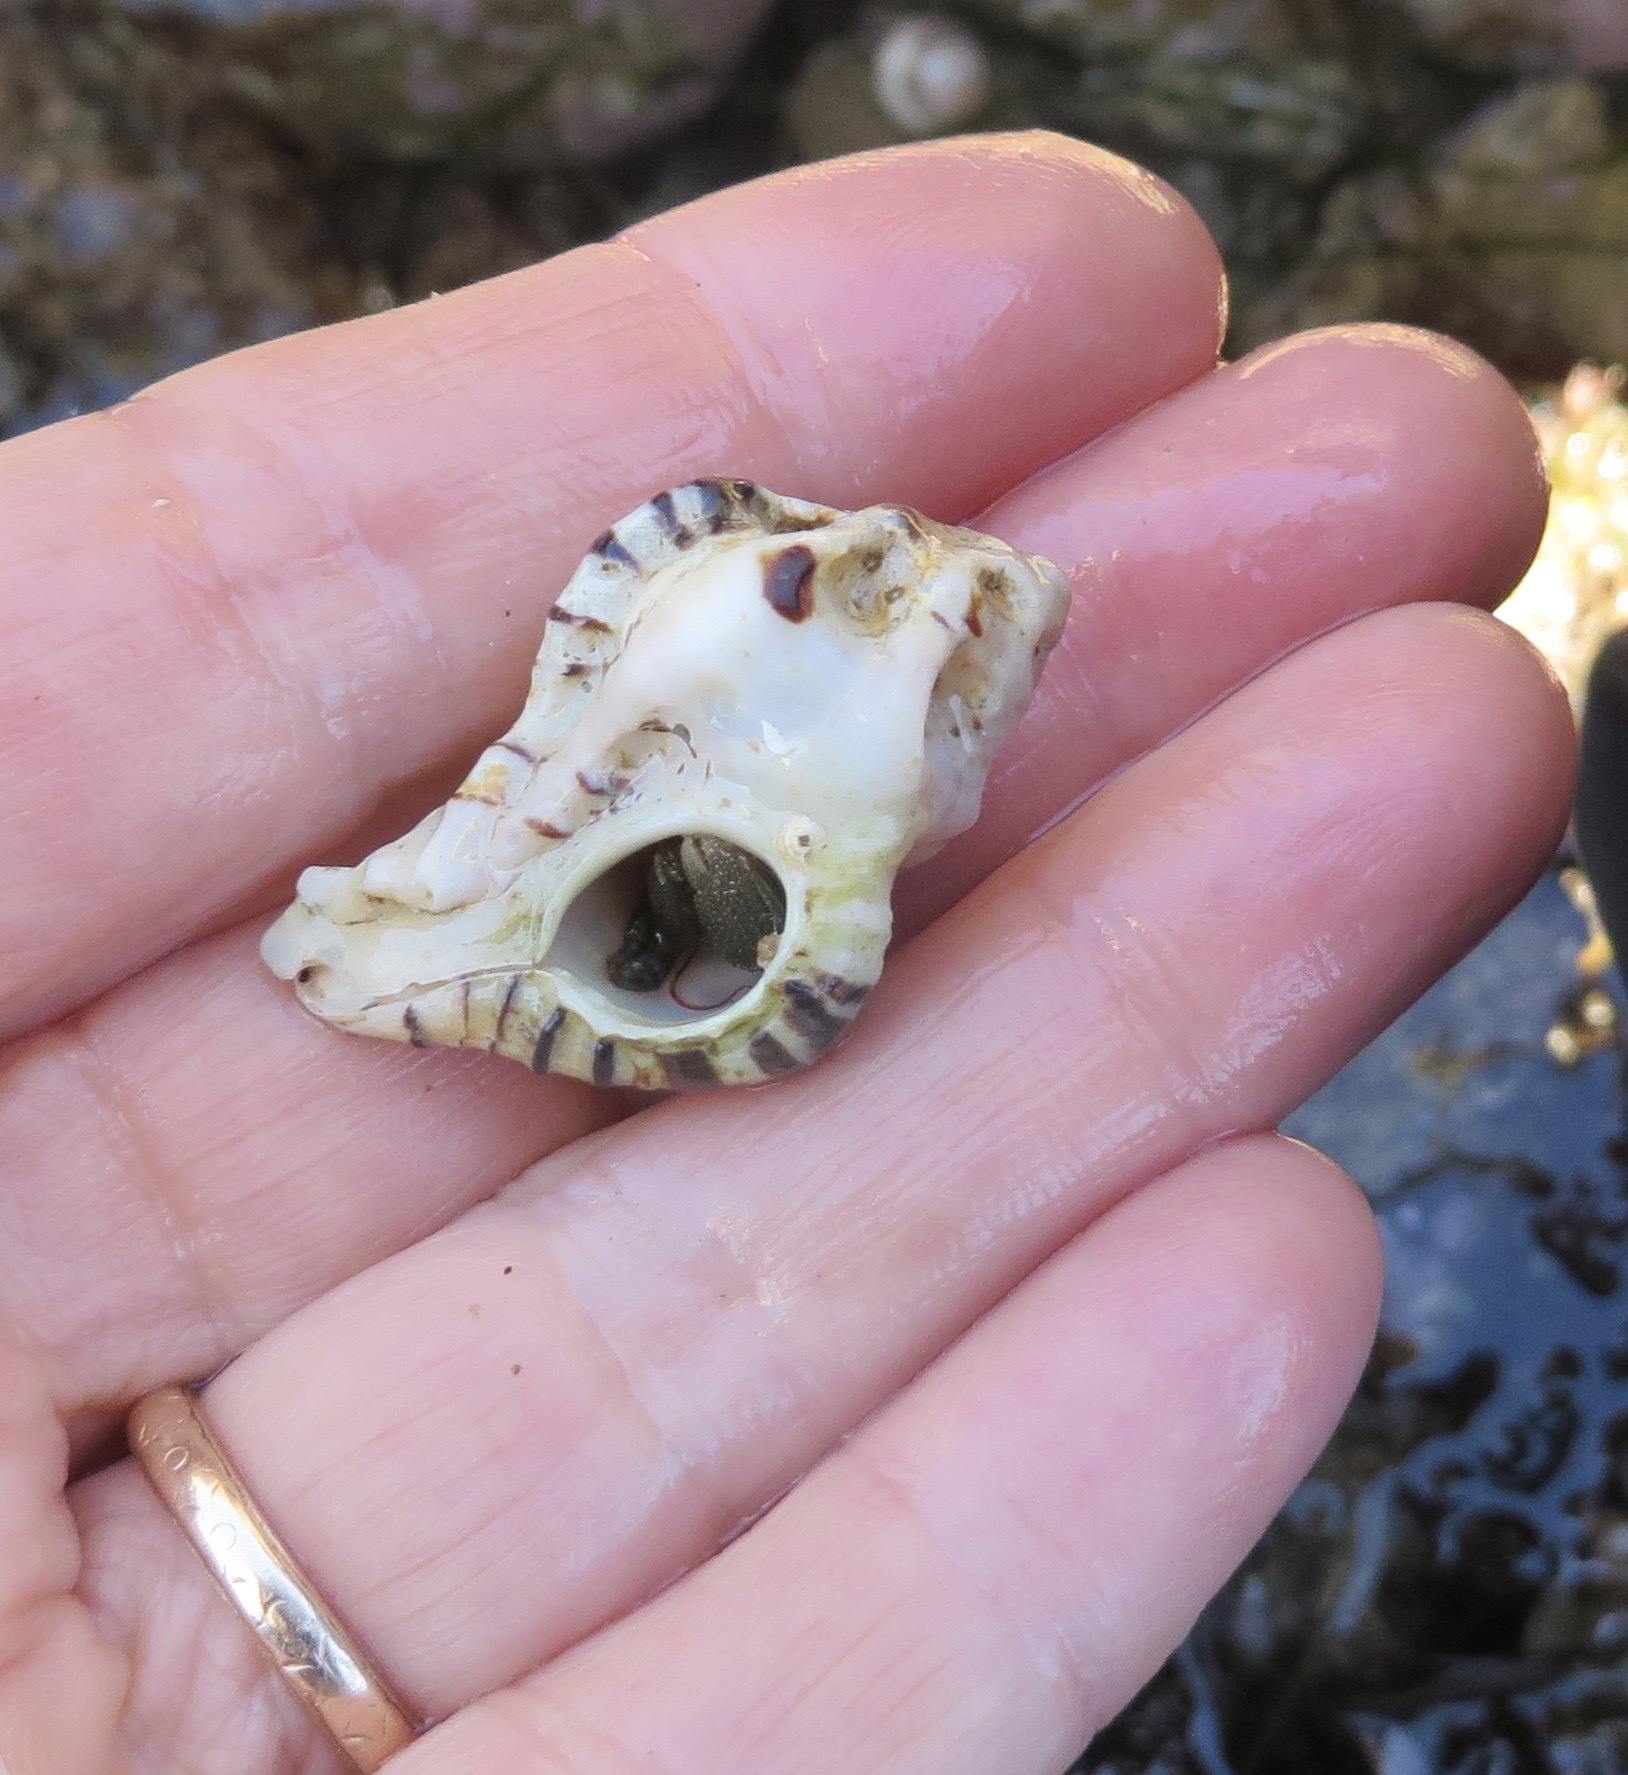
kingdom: Animalia
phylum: Mollusca
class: Gastropoda
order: Neogastropoda
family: Muricidae
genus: Maxwellia
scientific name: Maxwellia gemma
